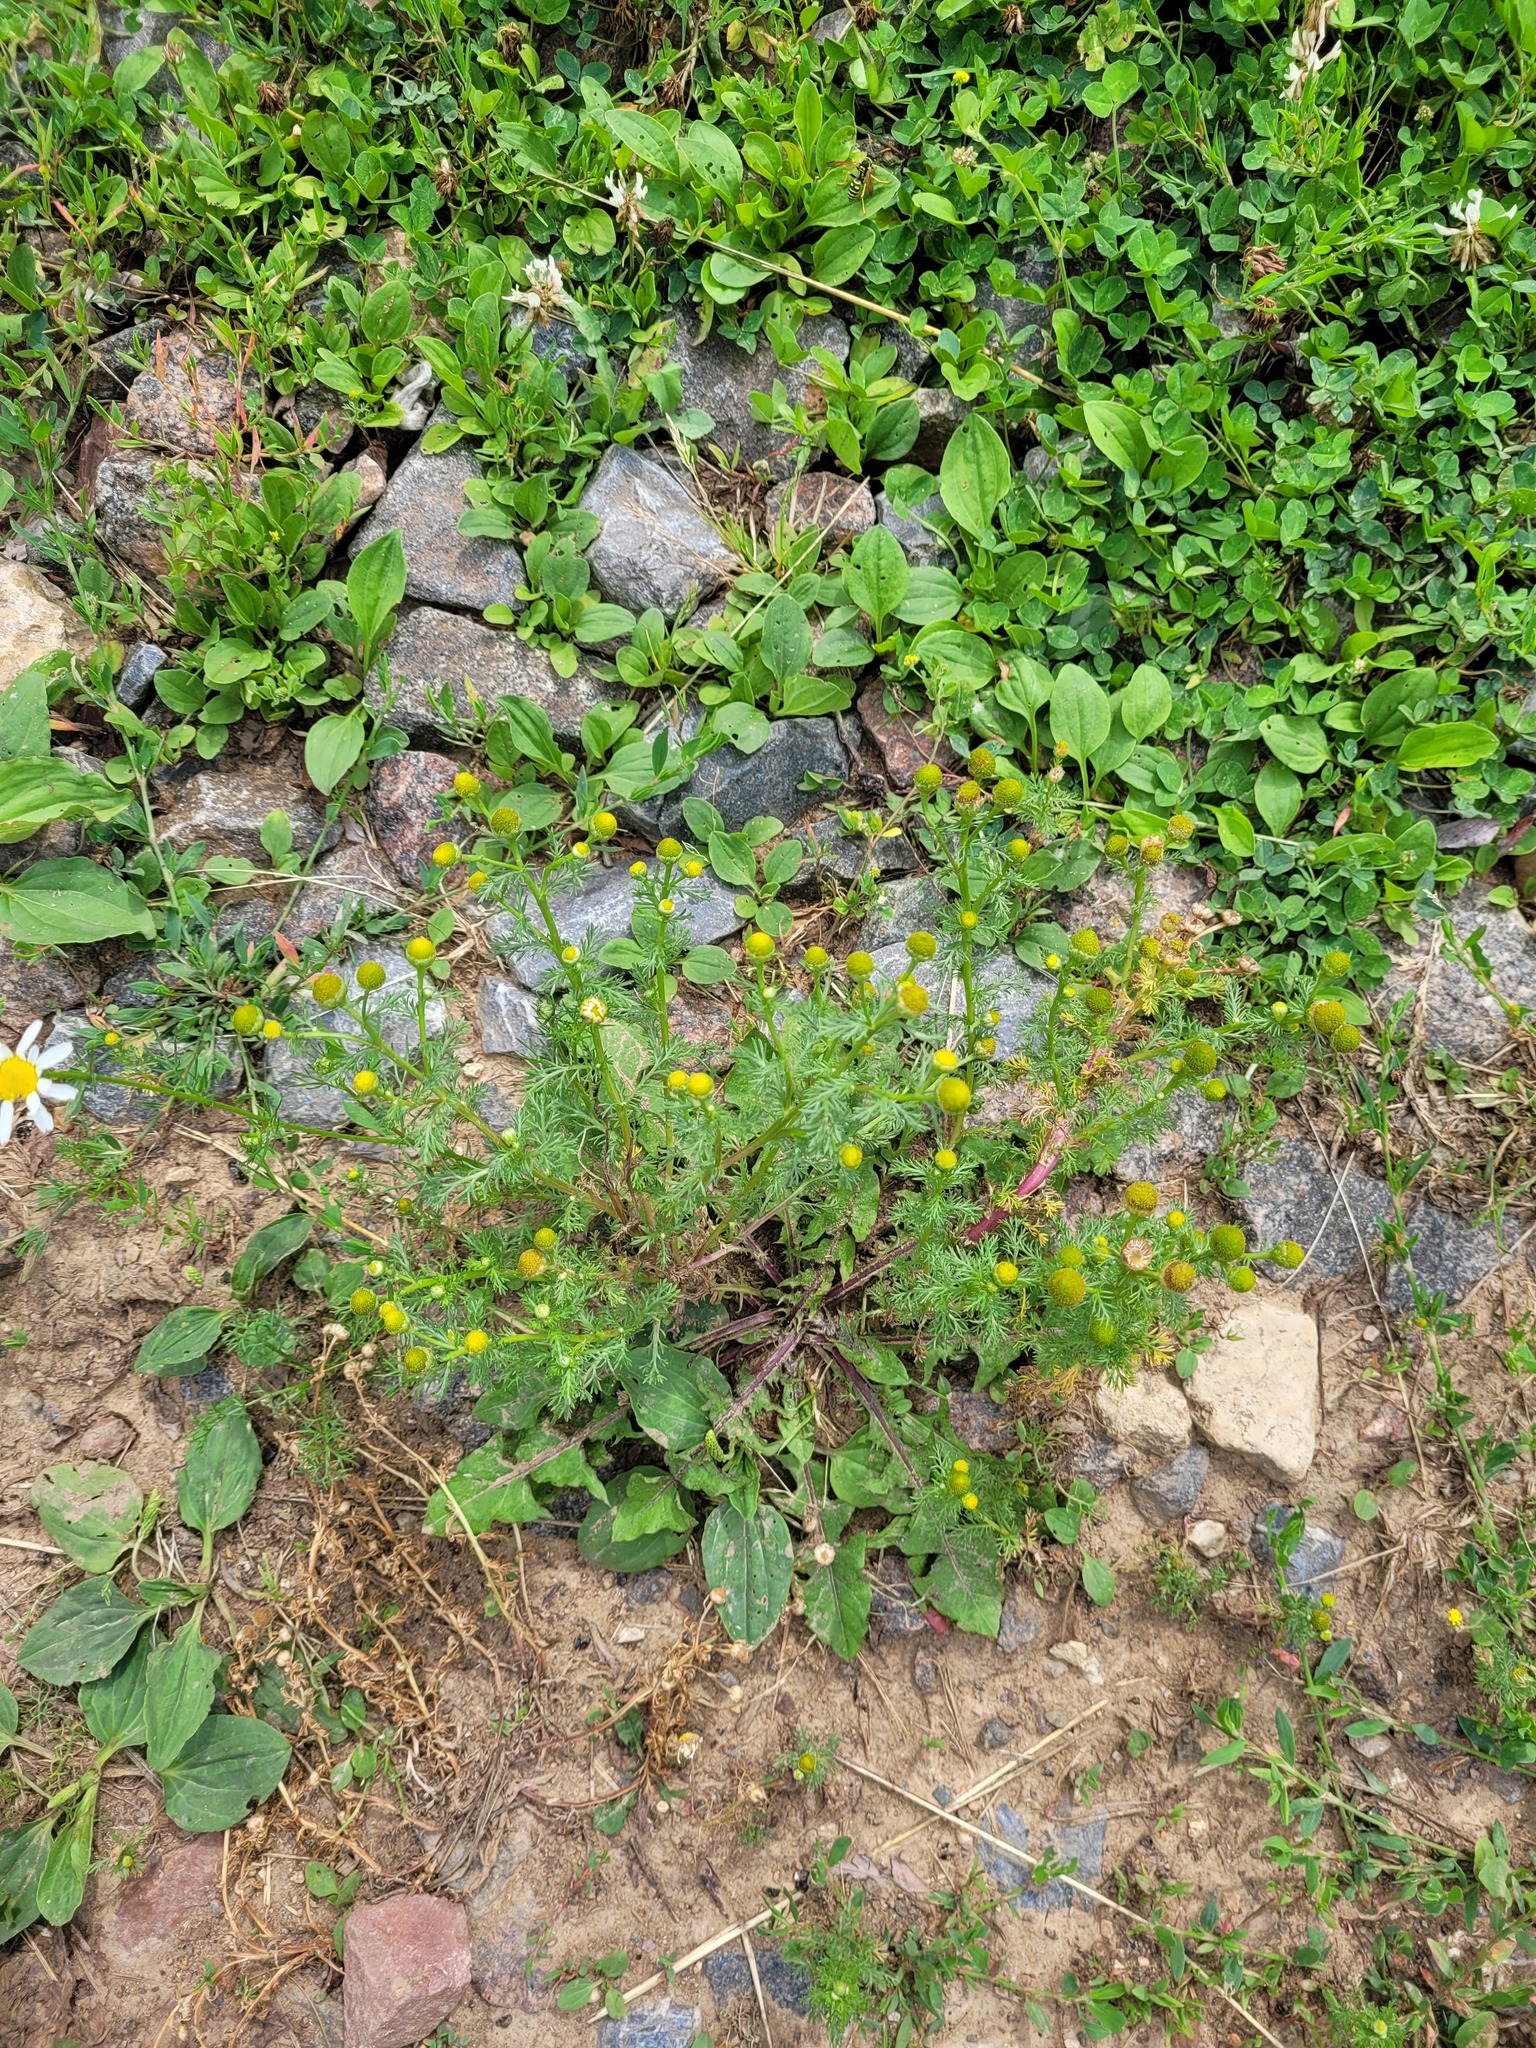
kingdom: Plantae
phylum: Tracheophyta
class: Magnoliopsida
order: Asterales
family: Asteraceae
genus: Matricaria
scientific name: Matricaria discoidea
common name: Disc mayweed
